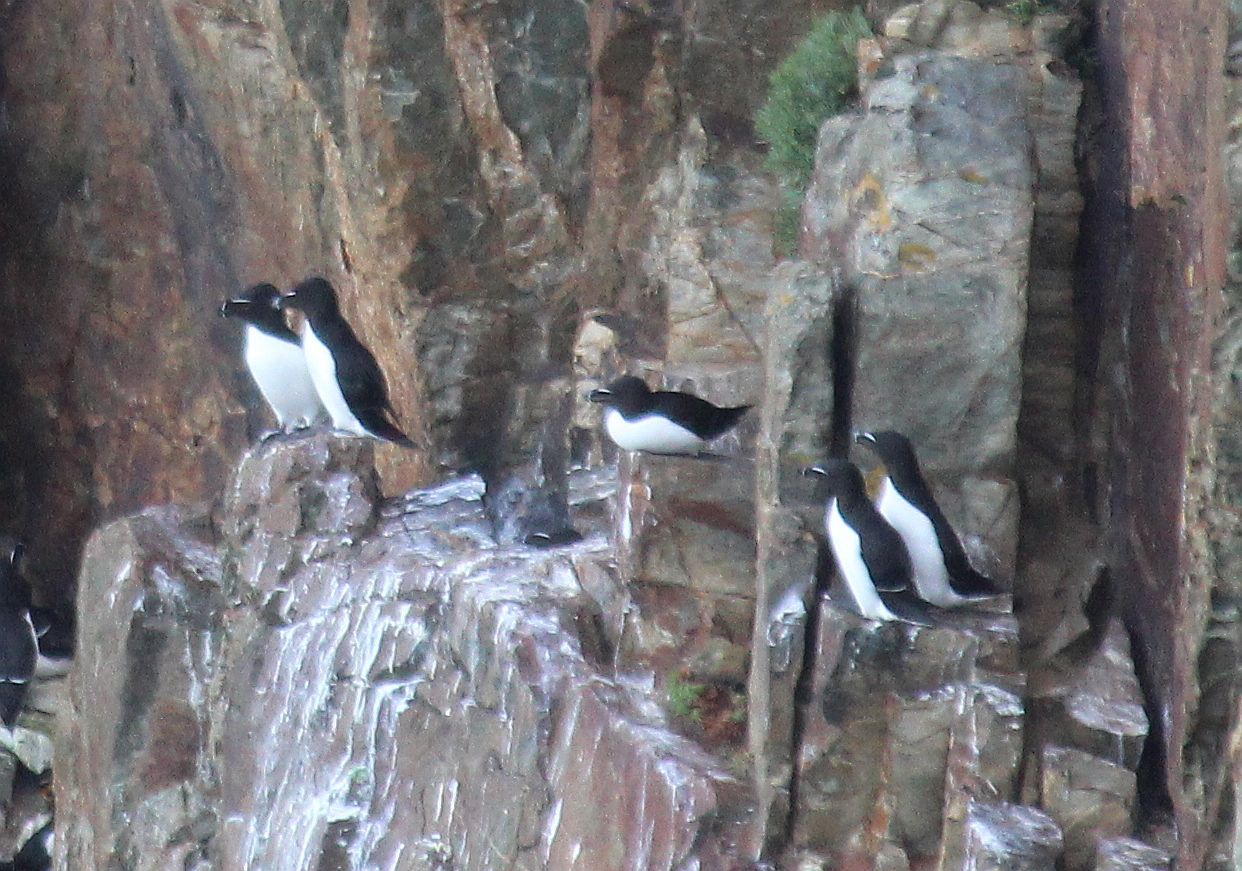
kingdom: Animalia
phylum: Chordata
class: Aves
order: Charadriiformes
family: Alcidae
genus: Alca
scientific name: Alca torda
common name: Razorbill
